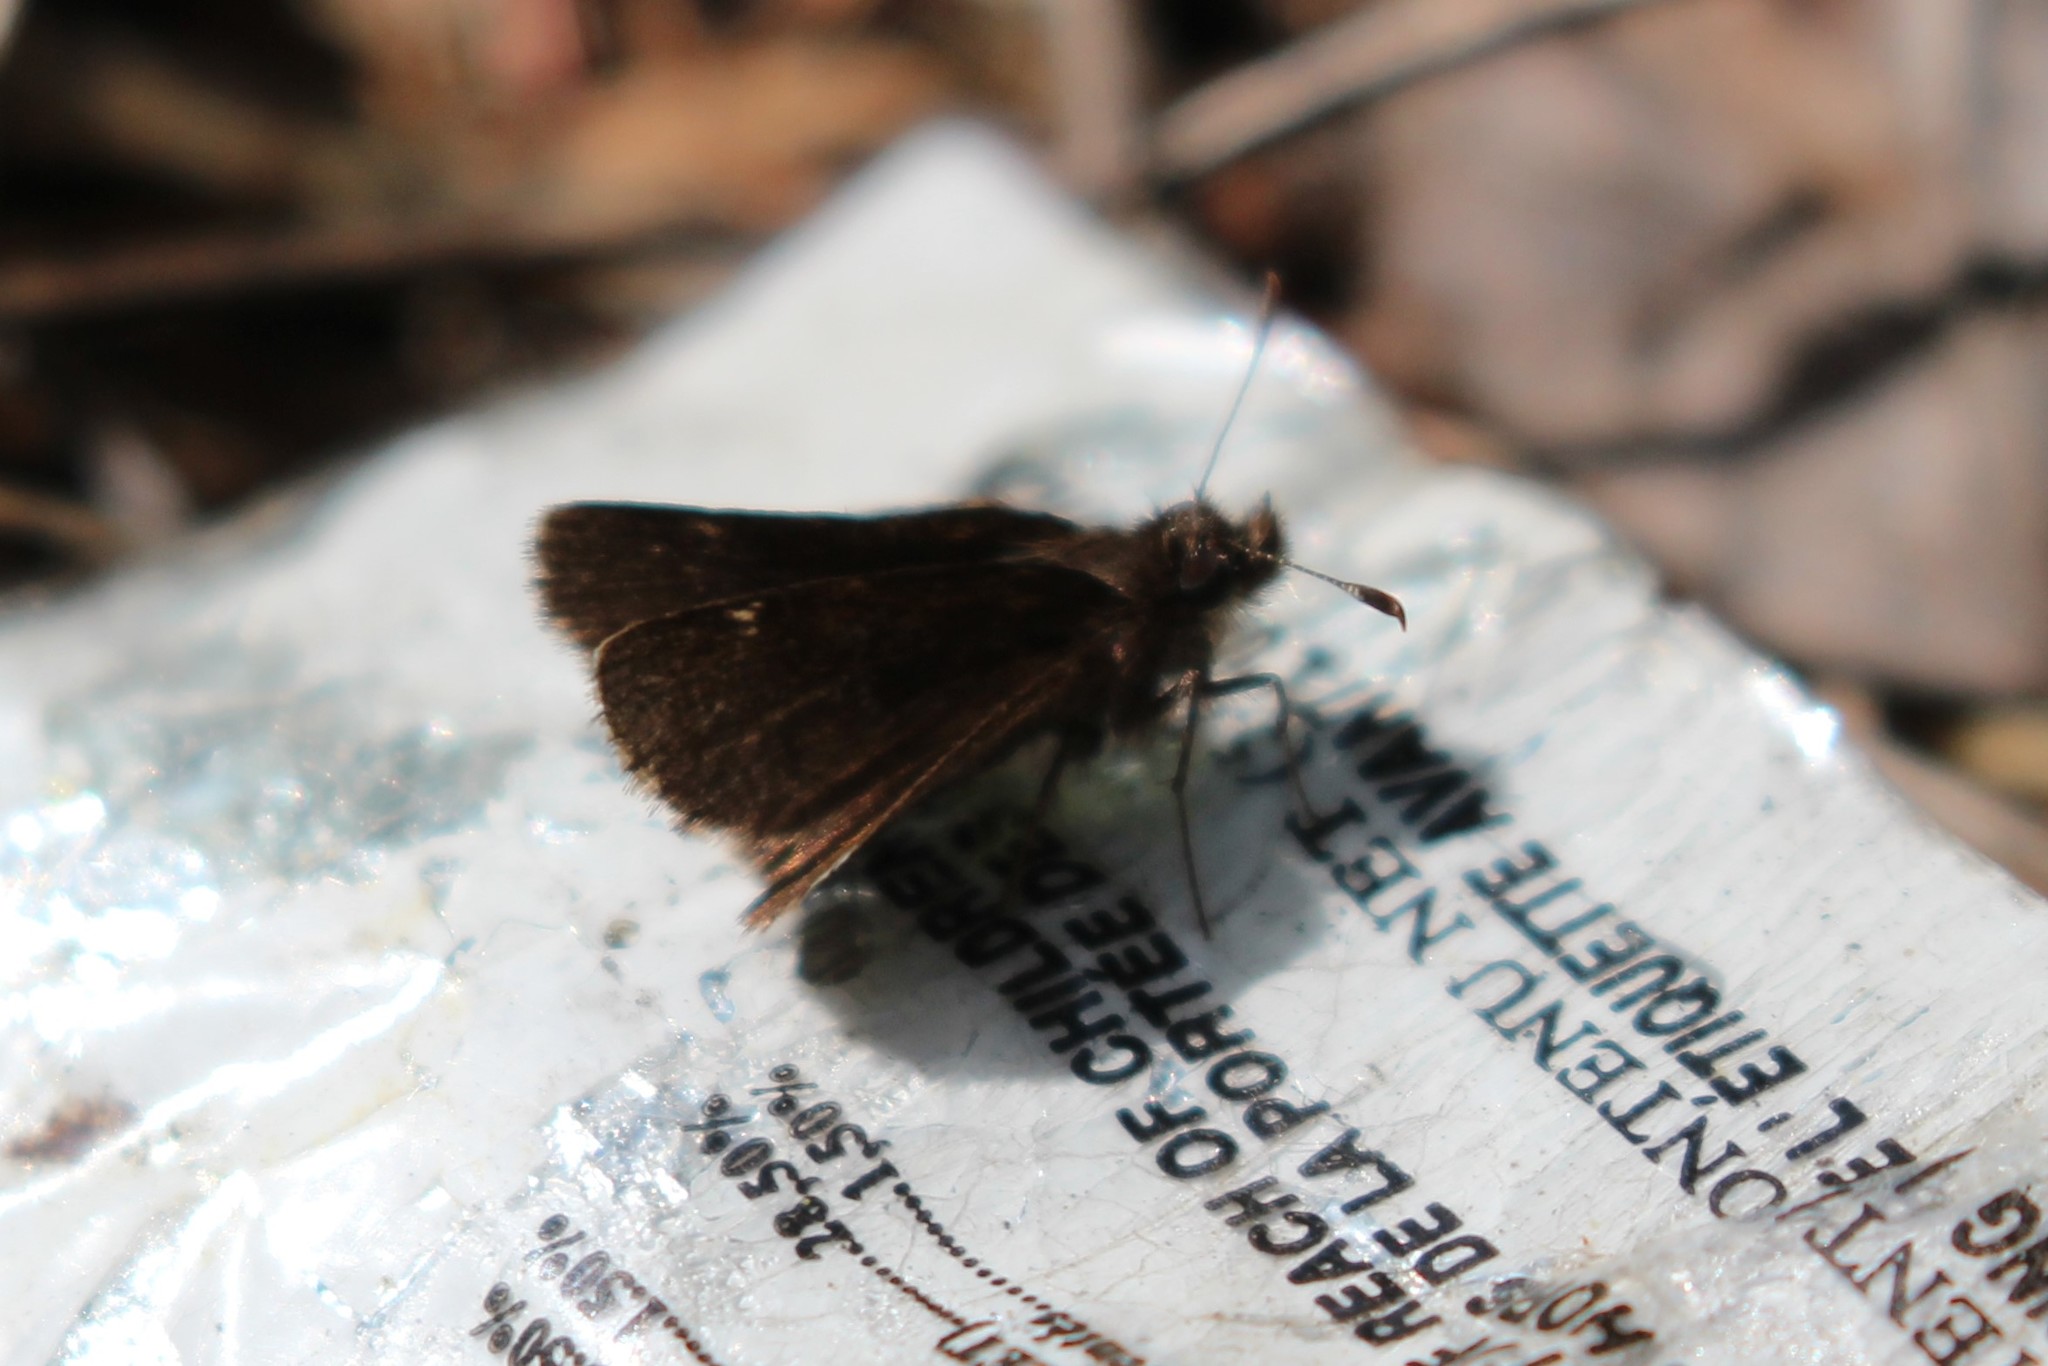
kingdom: Animalia
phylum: Arthropoda
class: Insecta
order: Lepidoptera
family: Hesperiidae
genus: Mastor
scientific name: Mastor vialis
